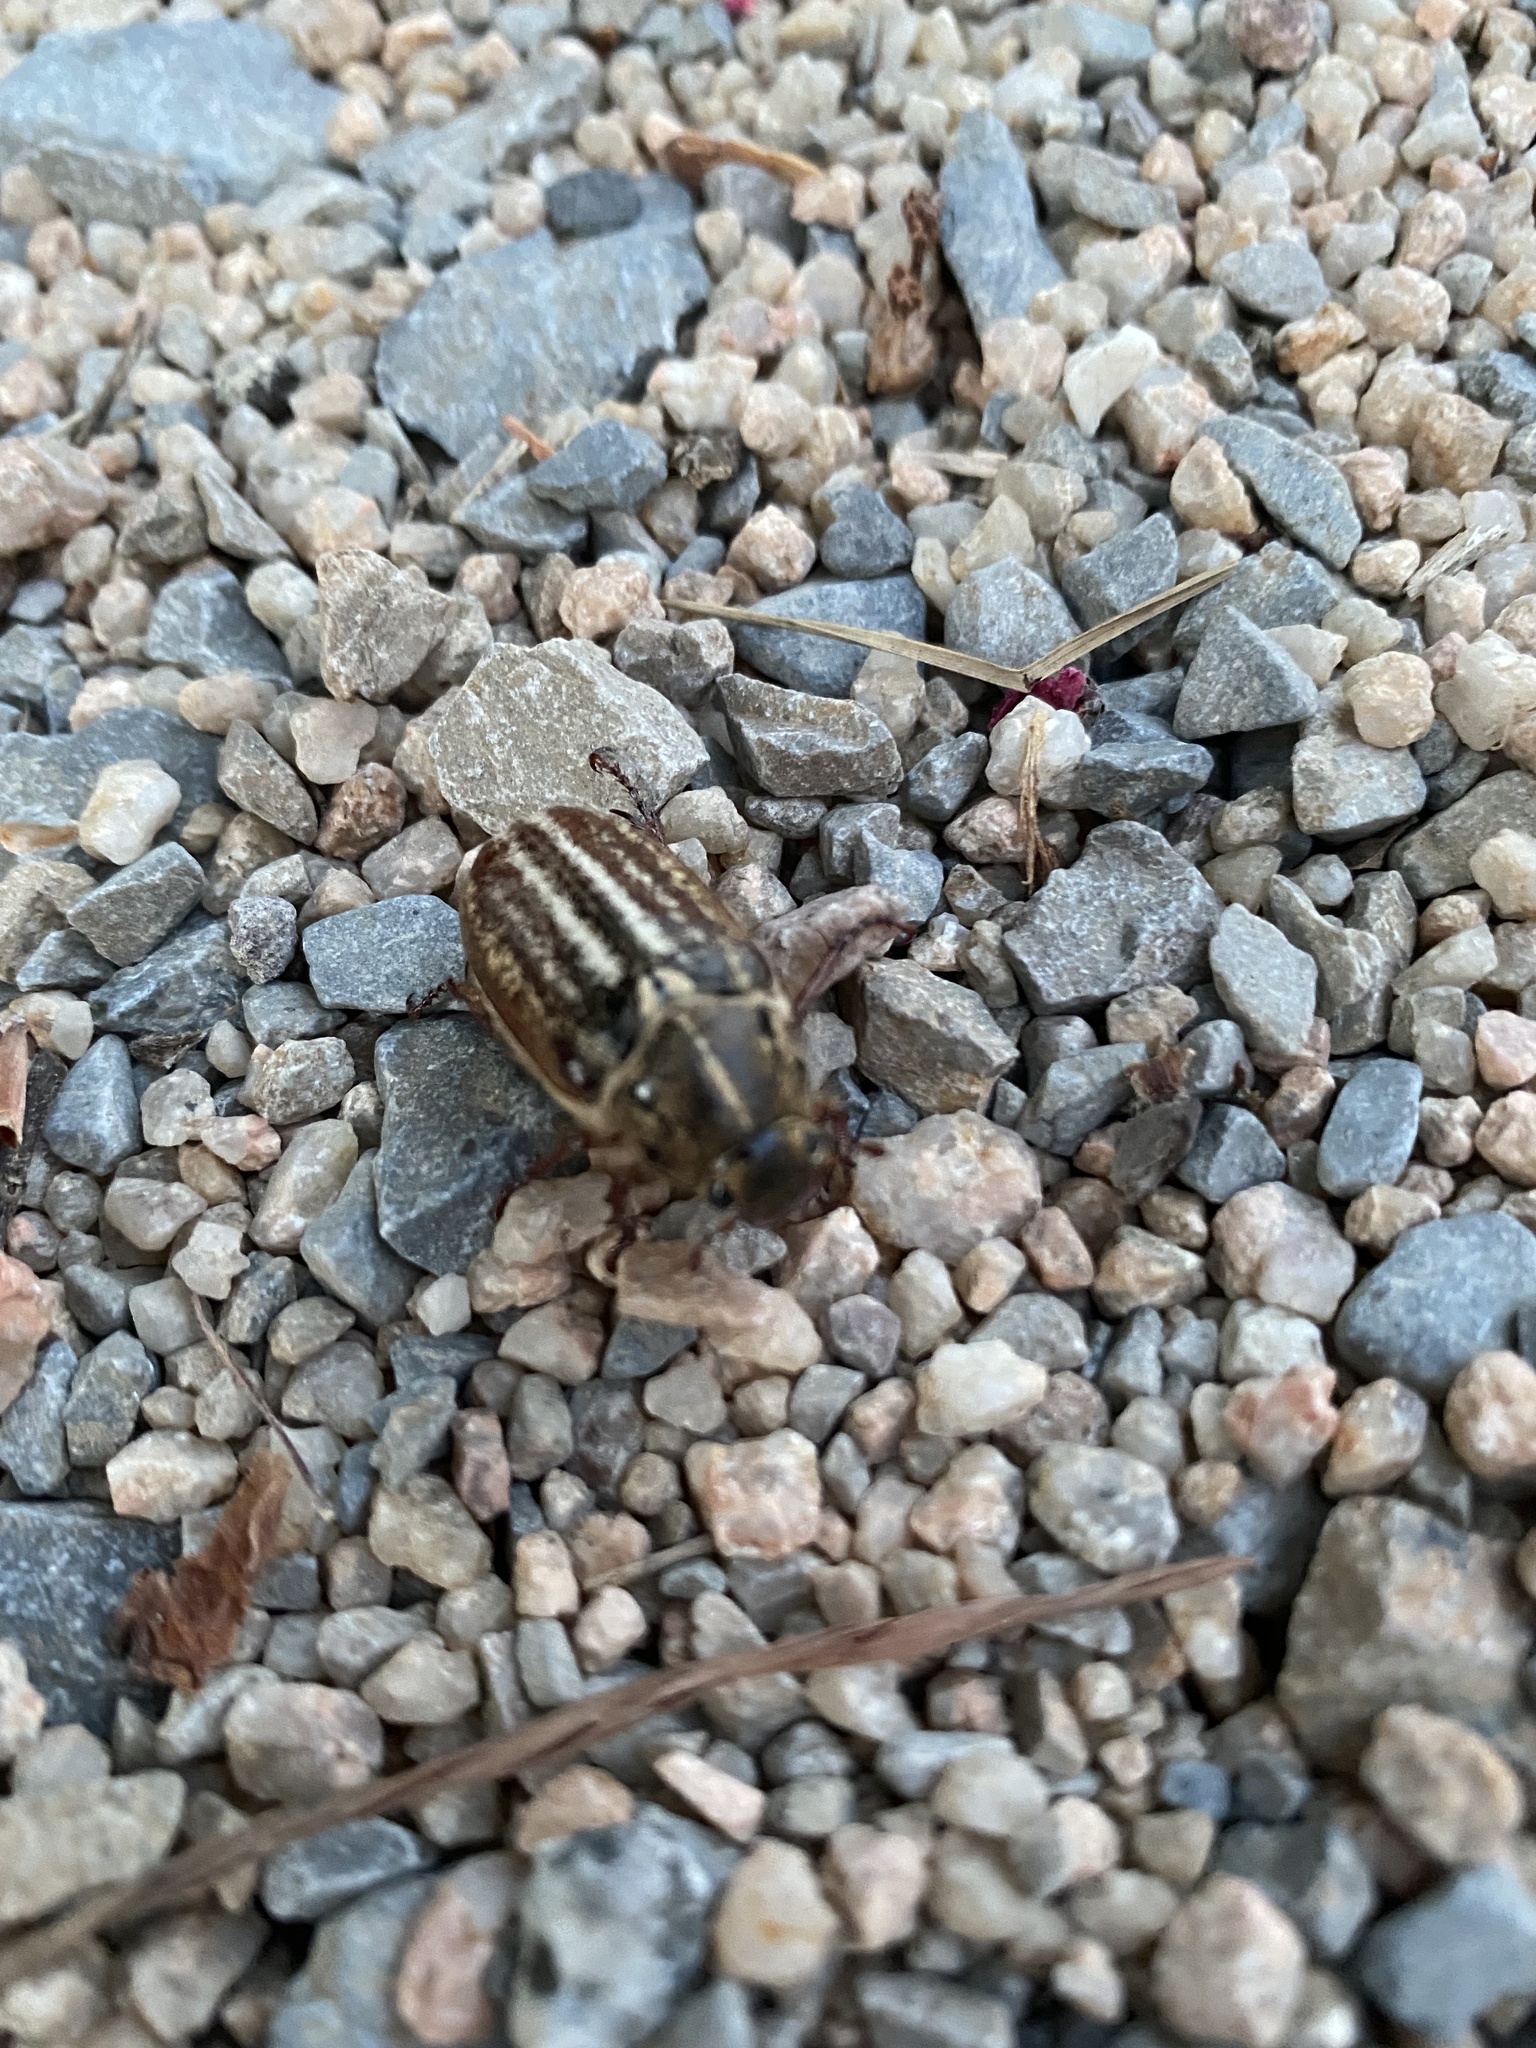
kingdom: Animalia
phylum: Arthropoda
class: Insecta
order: Coleoptera
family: Scarabaeidae
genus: Anoxia
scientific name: Anoxia australis
